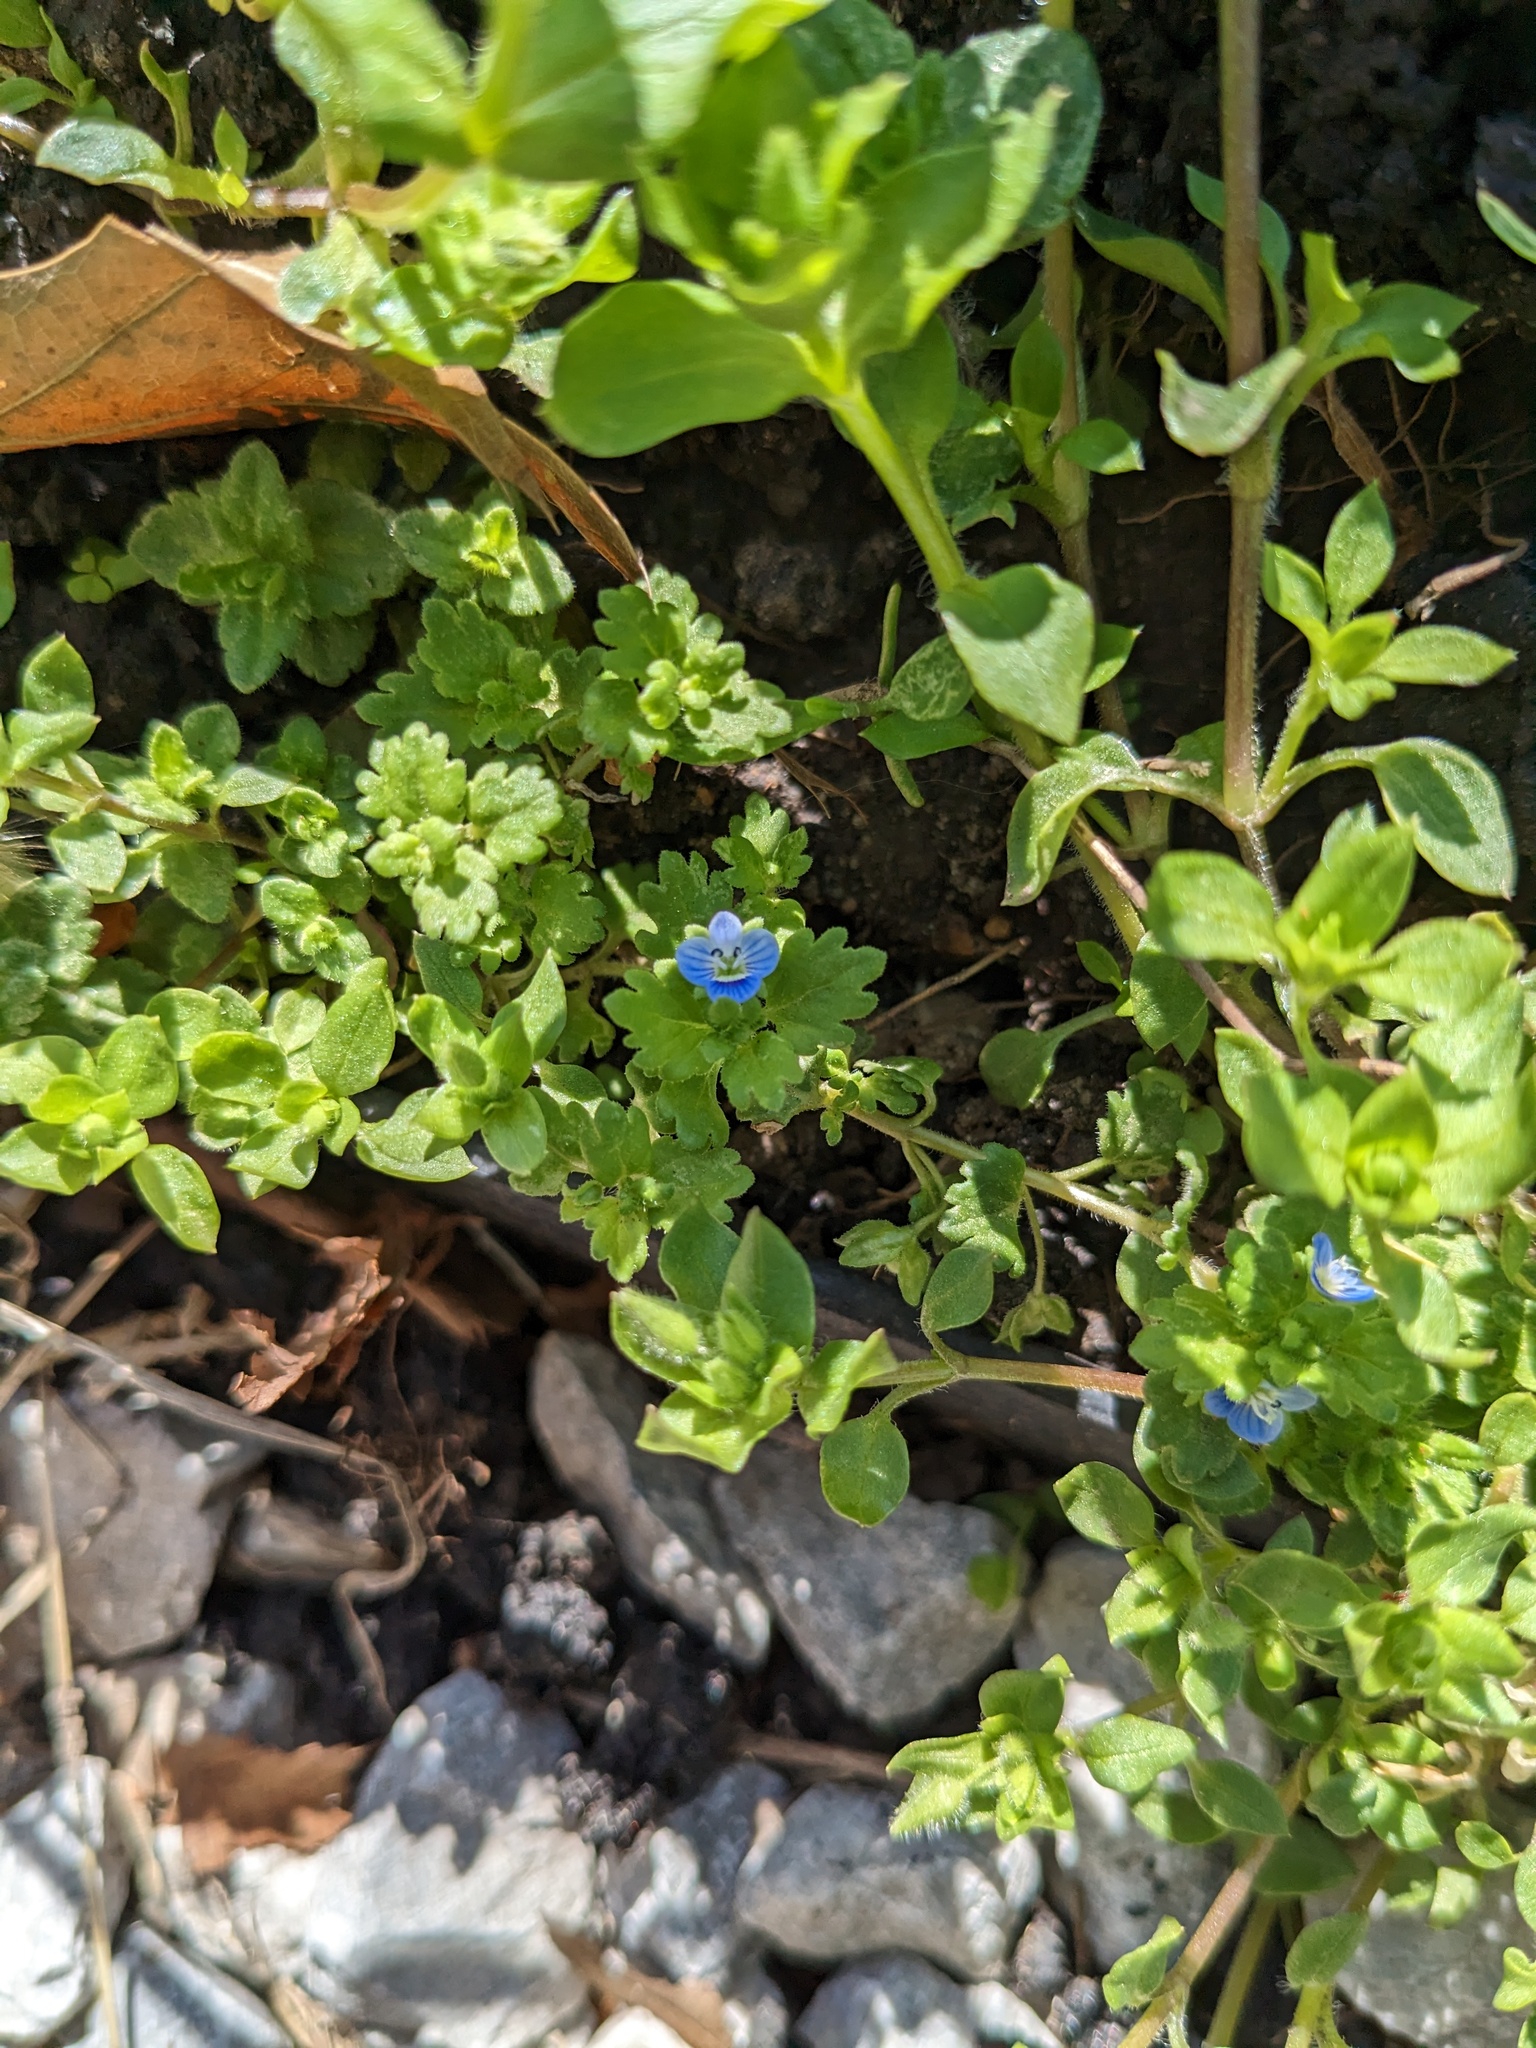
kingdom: Plantae
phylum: Tracheophyta
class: Magnoliopsida
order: Lamiales
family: Plantaginaceae
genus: Veronica
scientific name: Veronica polita
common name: Grey field-speedwell
